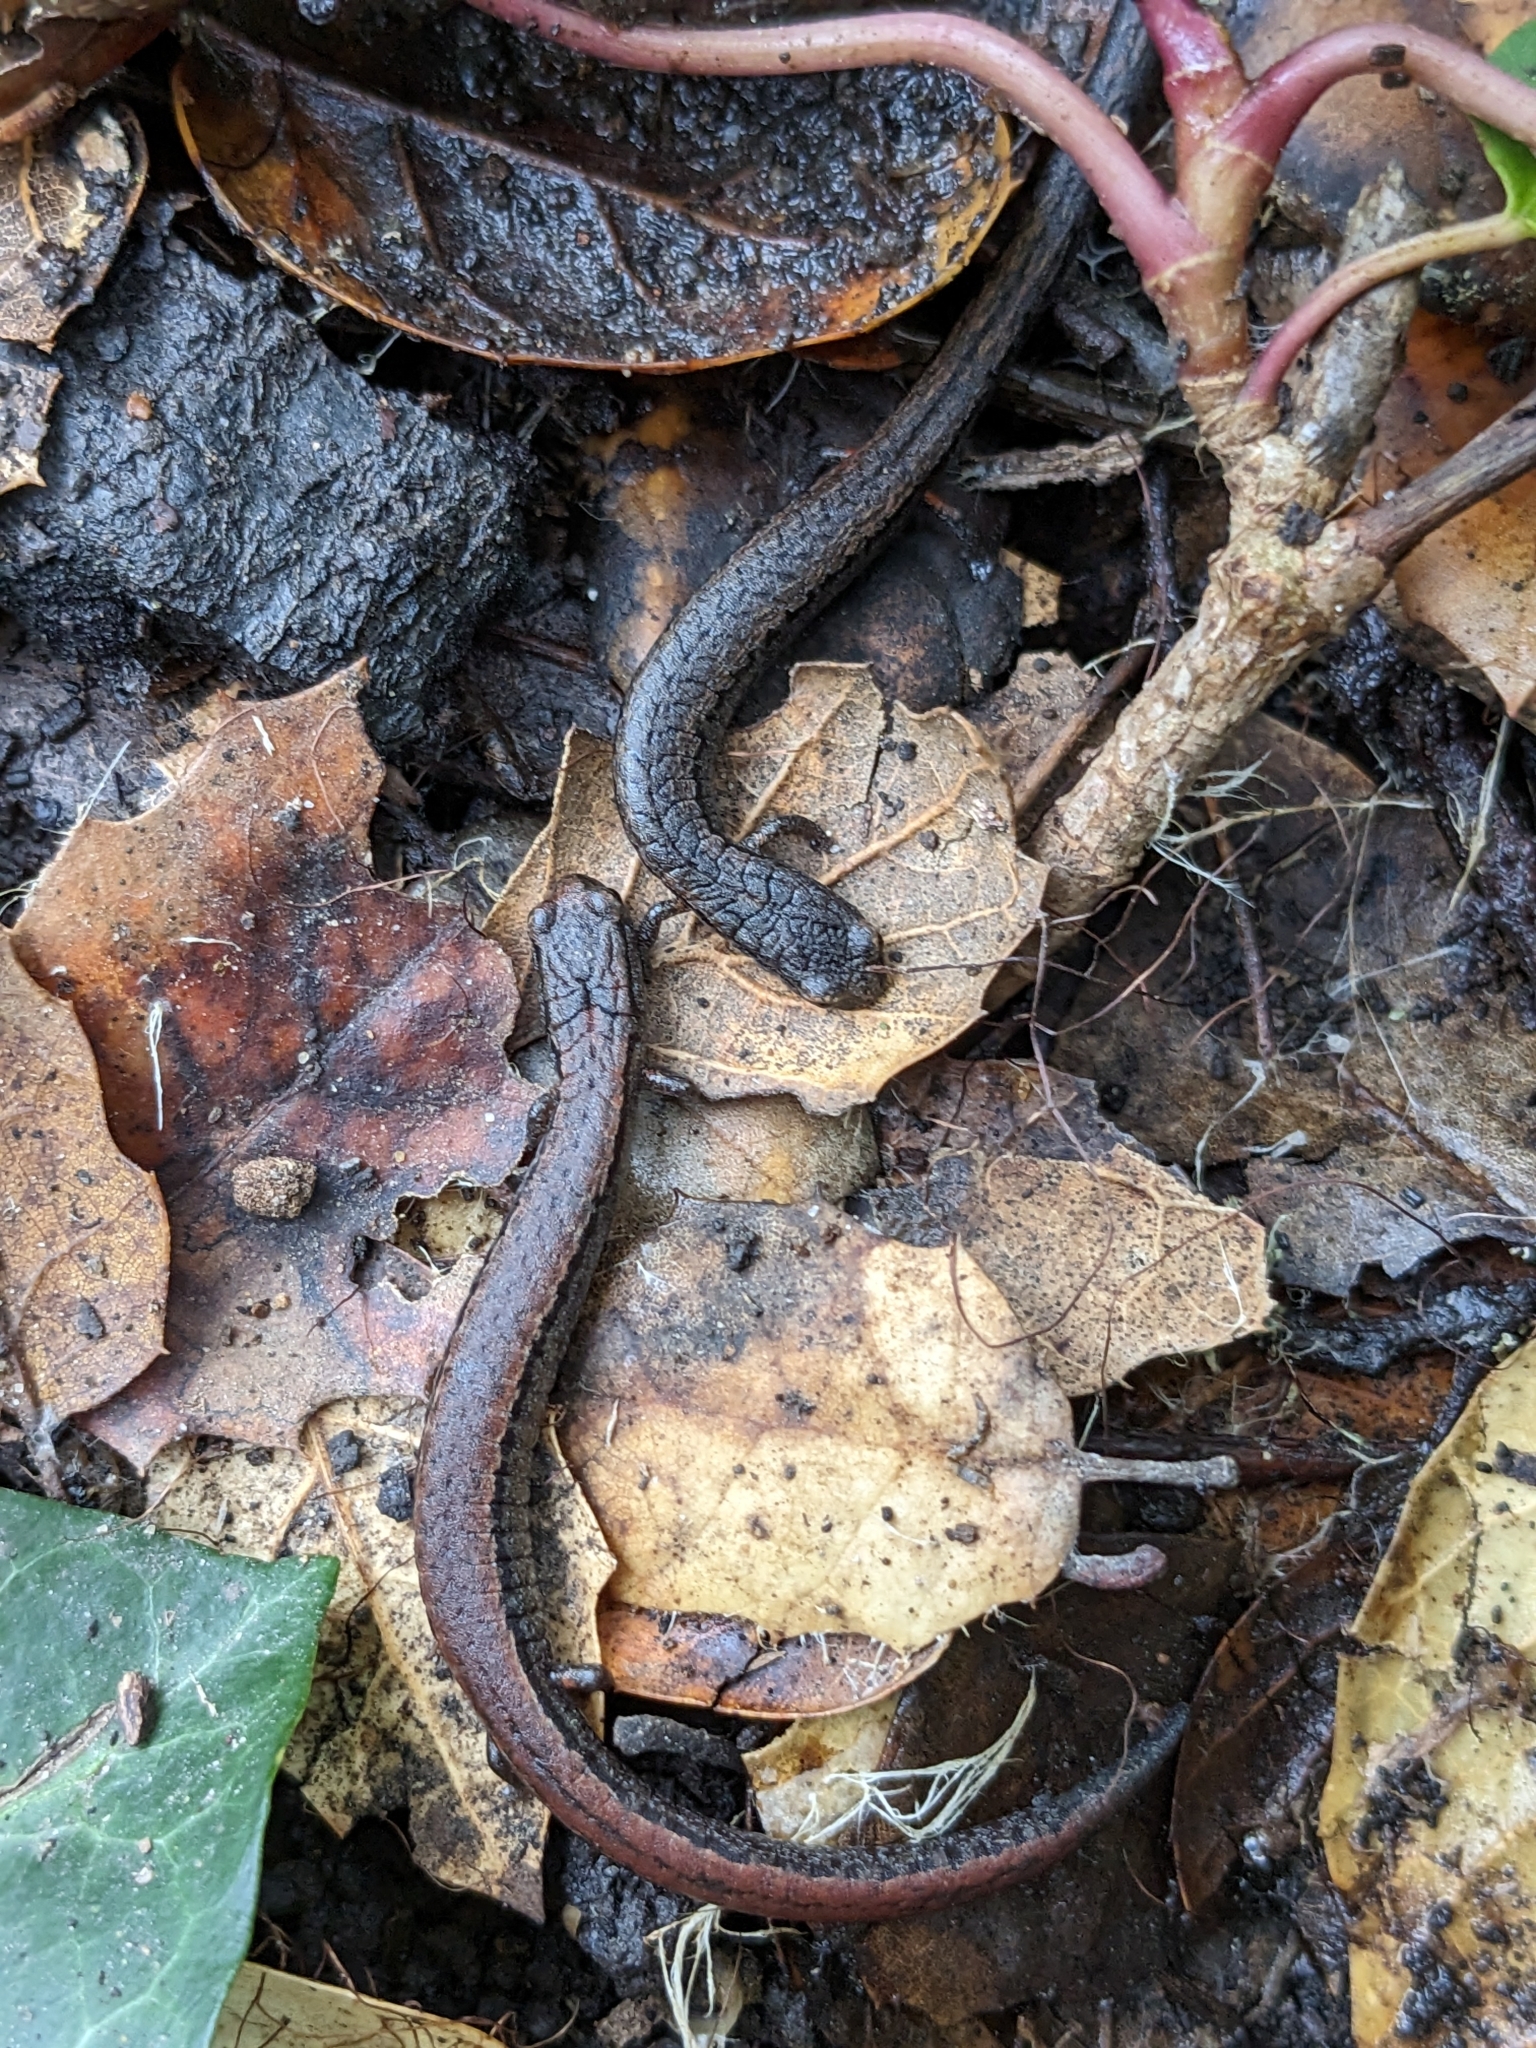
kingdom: Animalia
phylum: Chordata
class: Amphibia
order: Caudata
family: Plethodontidae
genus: Batrachoseps
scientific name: Batrachoseps attenuatus
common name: California slender salamander
